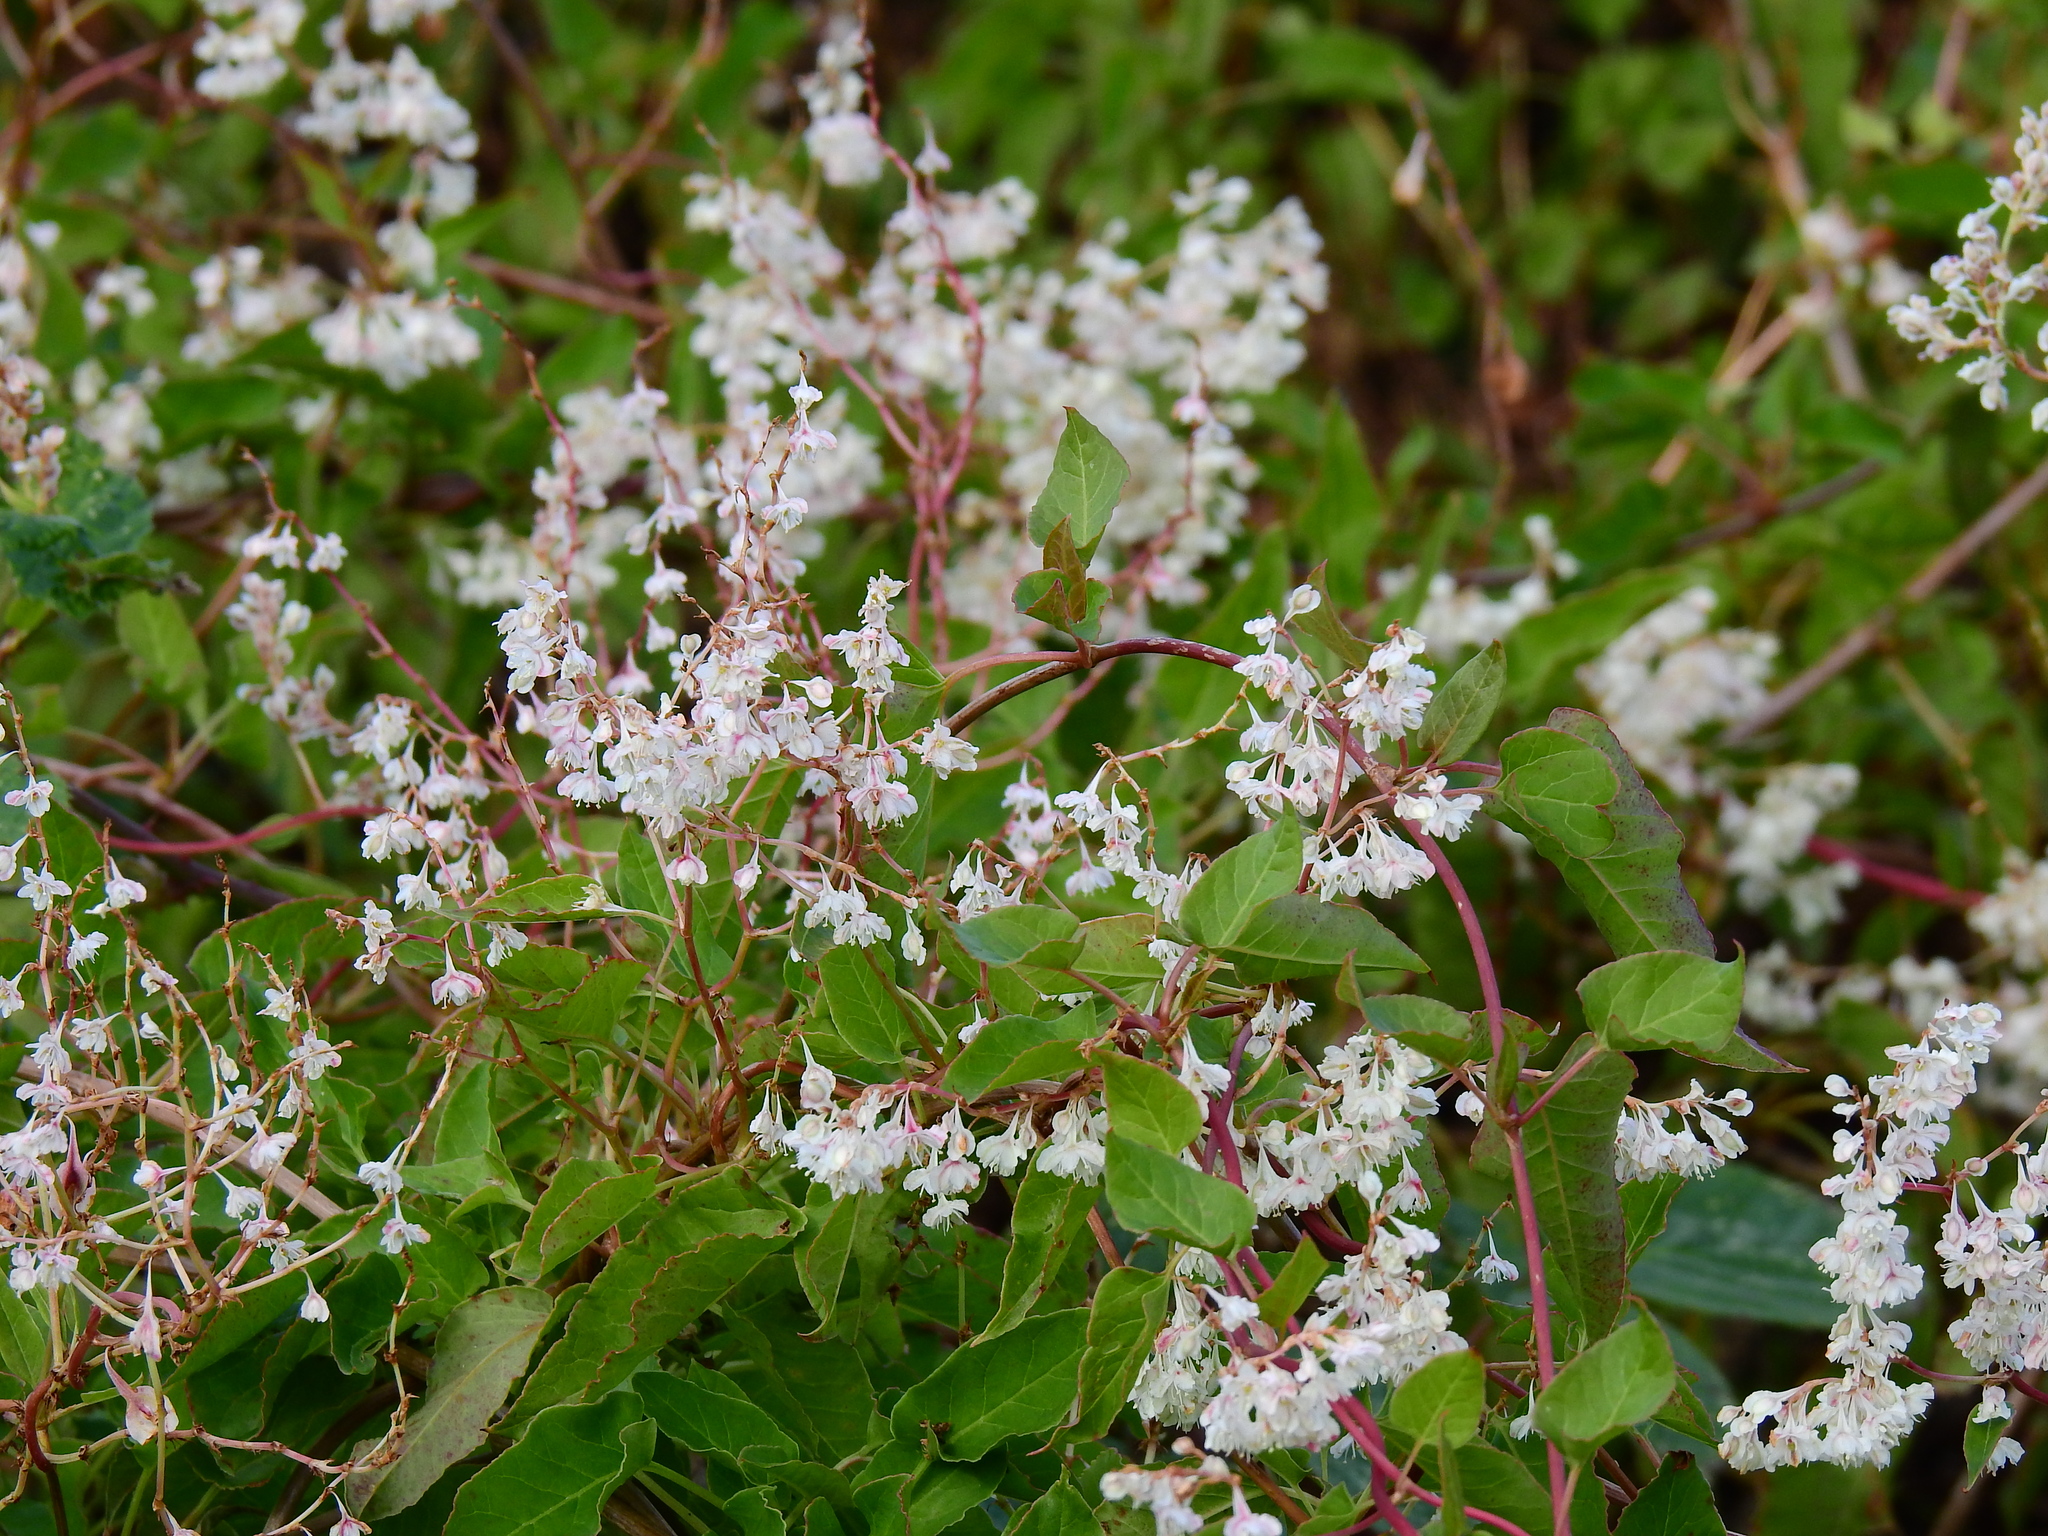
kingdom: Plantae
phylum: Tracheophyta
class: Magnoliopsida
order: Caryophyllales
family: Polygonaceae
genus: Fallopia
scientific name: Fallopia baldschuanica
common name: Russian-vine
